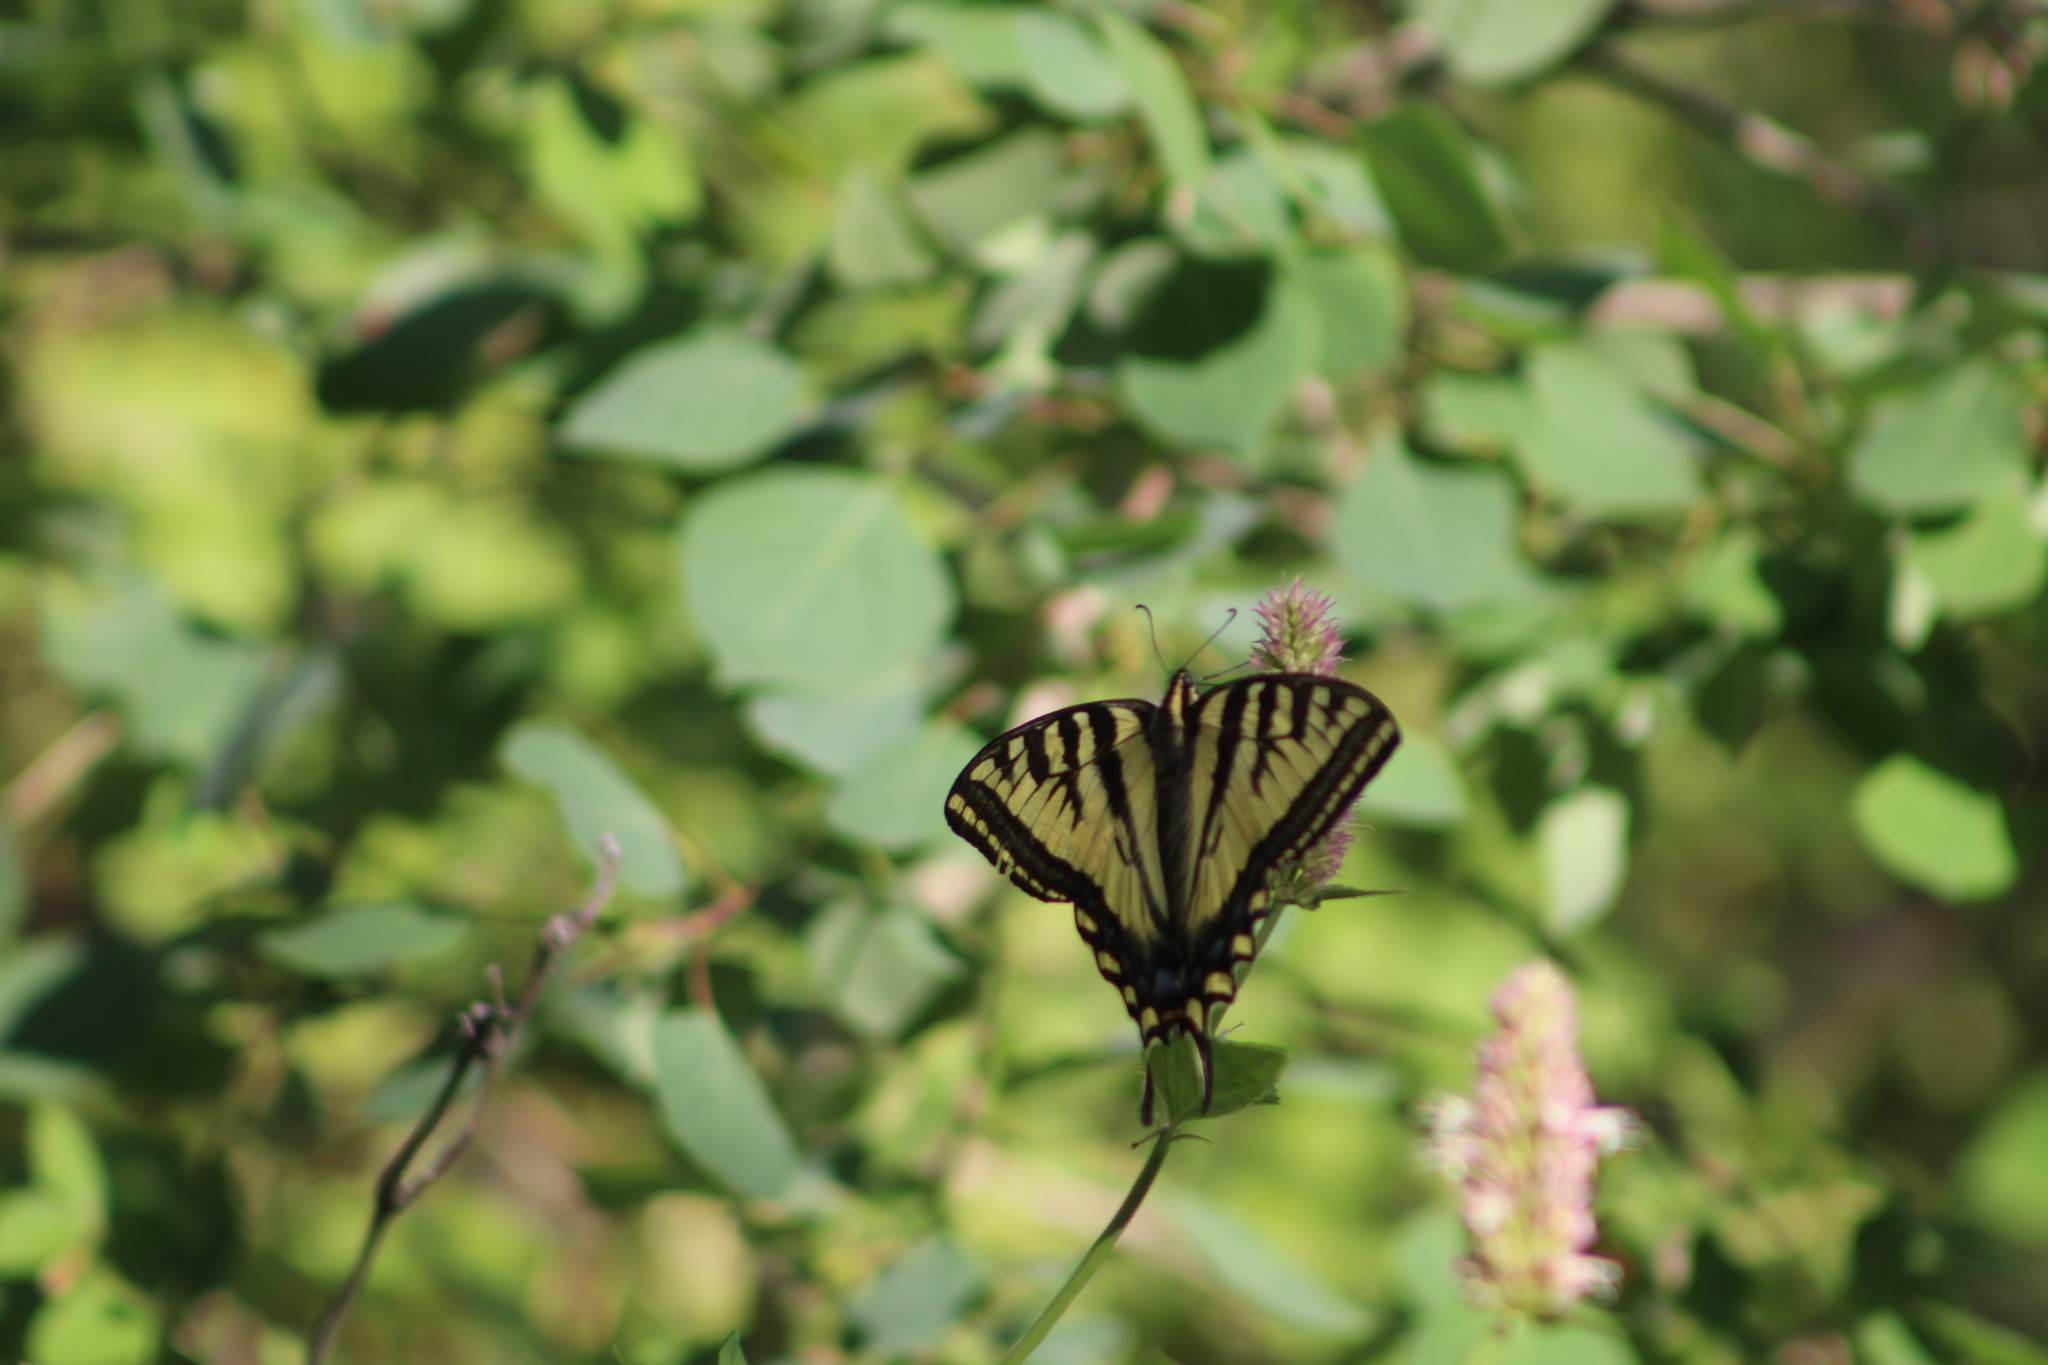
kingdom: Animalia
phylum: Arthropoda
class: Insecta
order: Lepidoptera
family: Papilionidae
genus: Papilio
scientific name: Papilio rutulus
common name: Western tiger swallowtail
